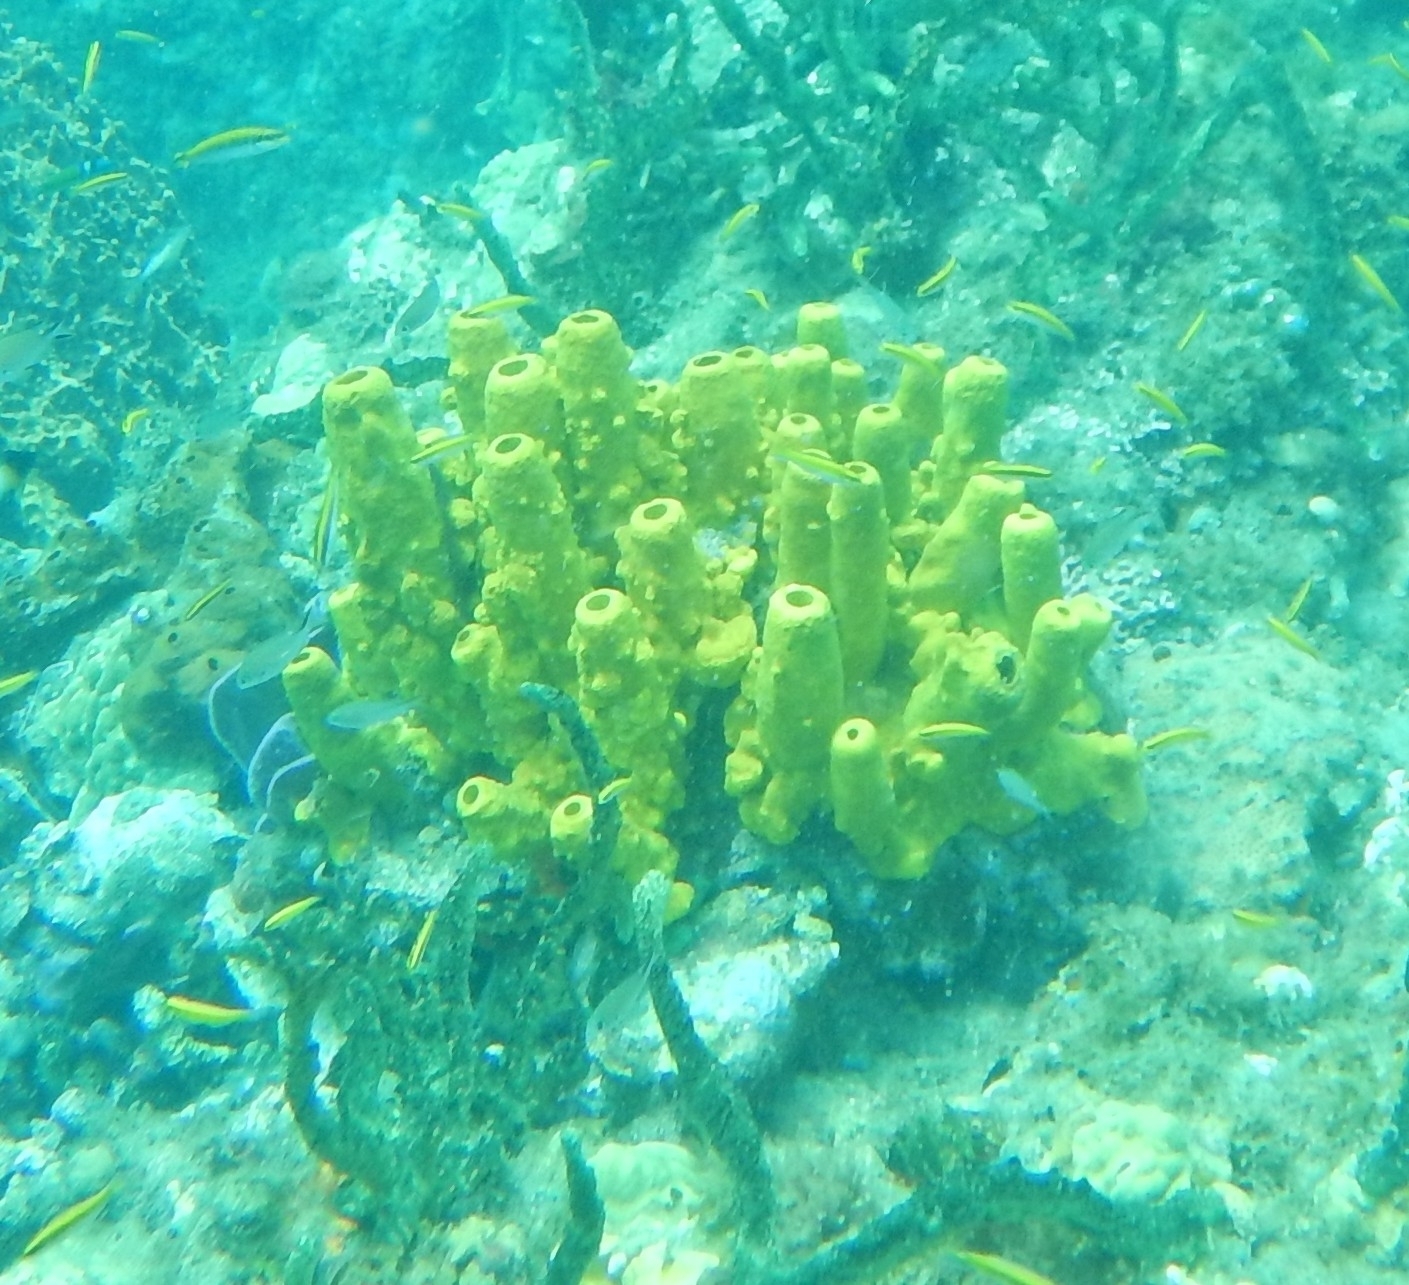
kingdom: Animalia
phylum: Porifera
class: Demospongiae
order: Verongiida
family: Aplysinidae
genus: Aplysina
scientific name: Aplysina fistularis
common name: Candle sponge
